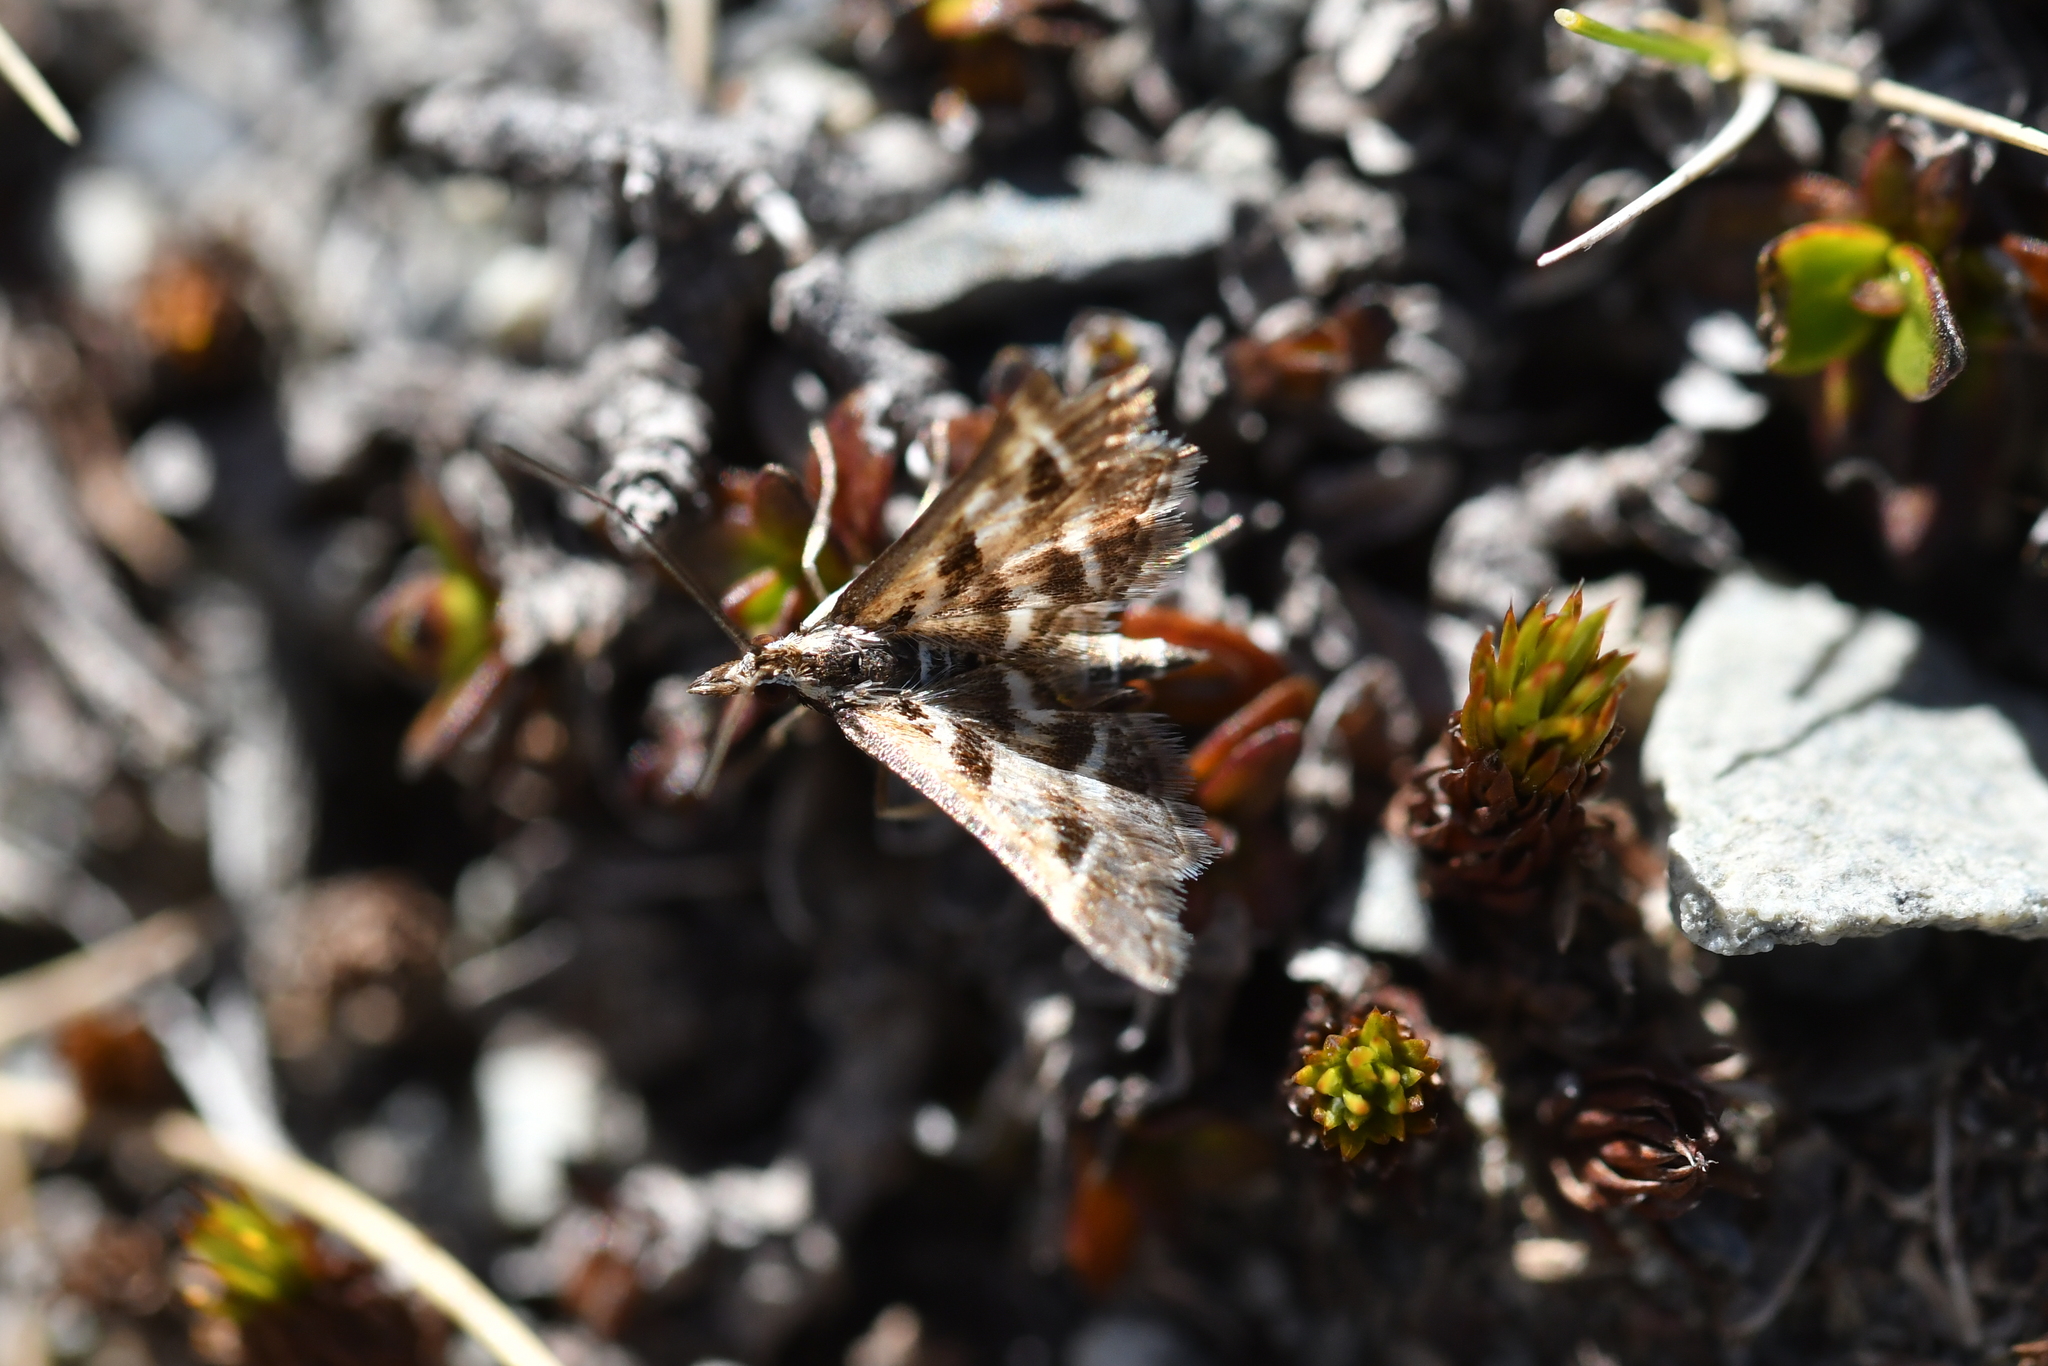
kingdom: Animalia
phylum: Arthropoda
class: Insecta
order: Lepidoptera
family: Crambidae
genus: Diasemia
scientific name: Diasemia grammalis
